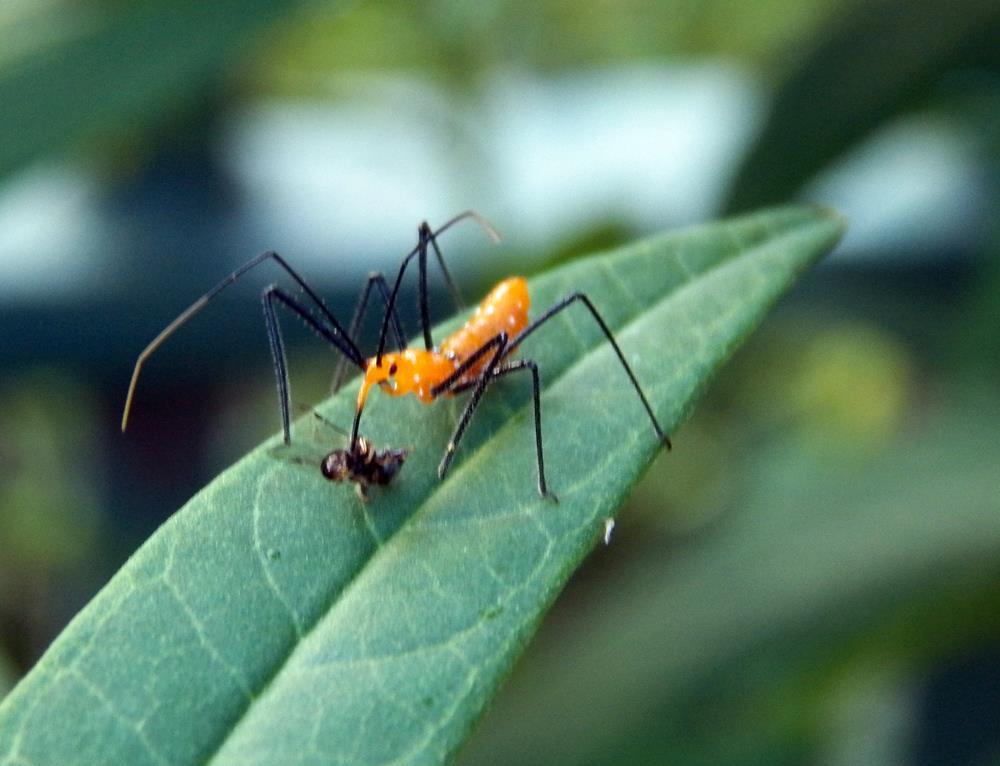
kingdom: Animalia
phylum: Arthropoda
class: Insecta
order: Hemiptera
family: Reduviidae
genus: Zelus
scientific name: Zelus longipes
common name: Milkweed assassin bug
